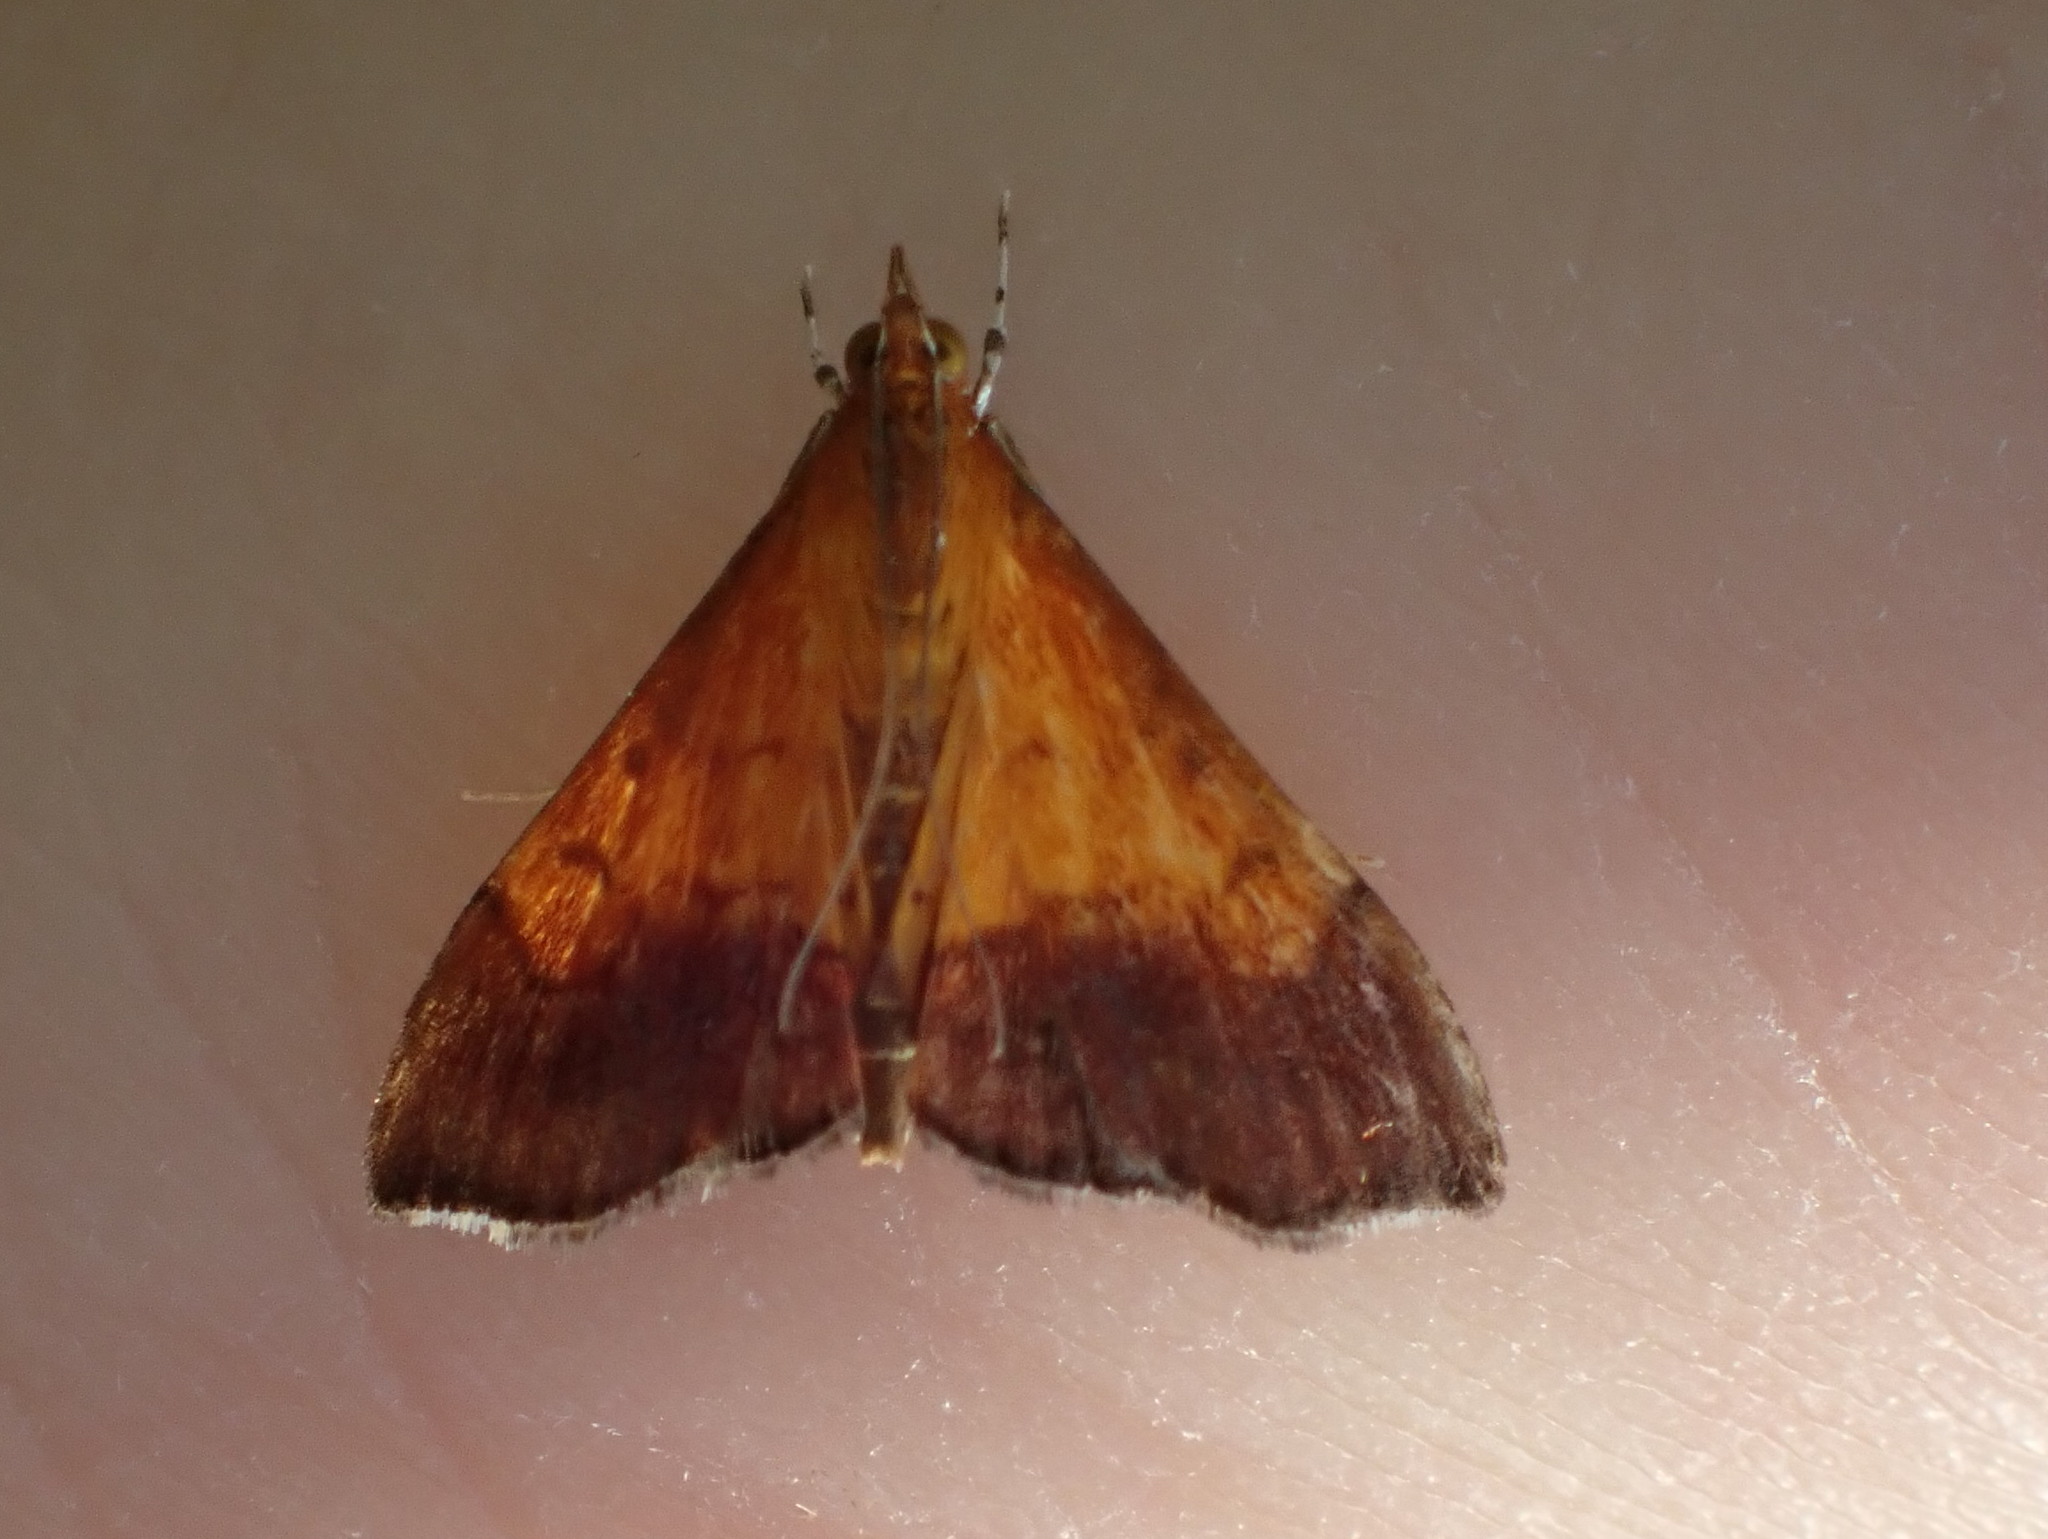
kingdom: Animalia
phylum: Arthropoda
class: Insecta
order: Lepidoptera
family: Crambidae
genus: Pyrausta
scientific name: Pyrausta bicoloralis
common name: Bicolored pyrausta moth
